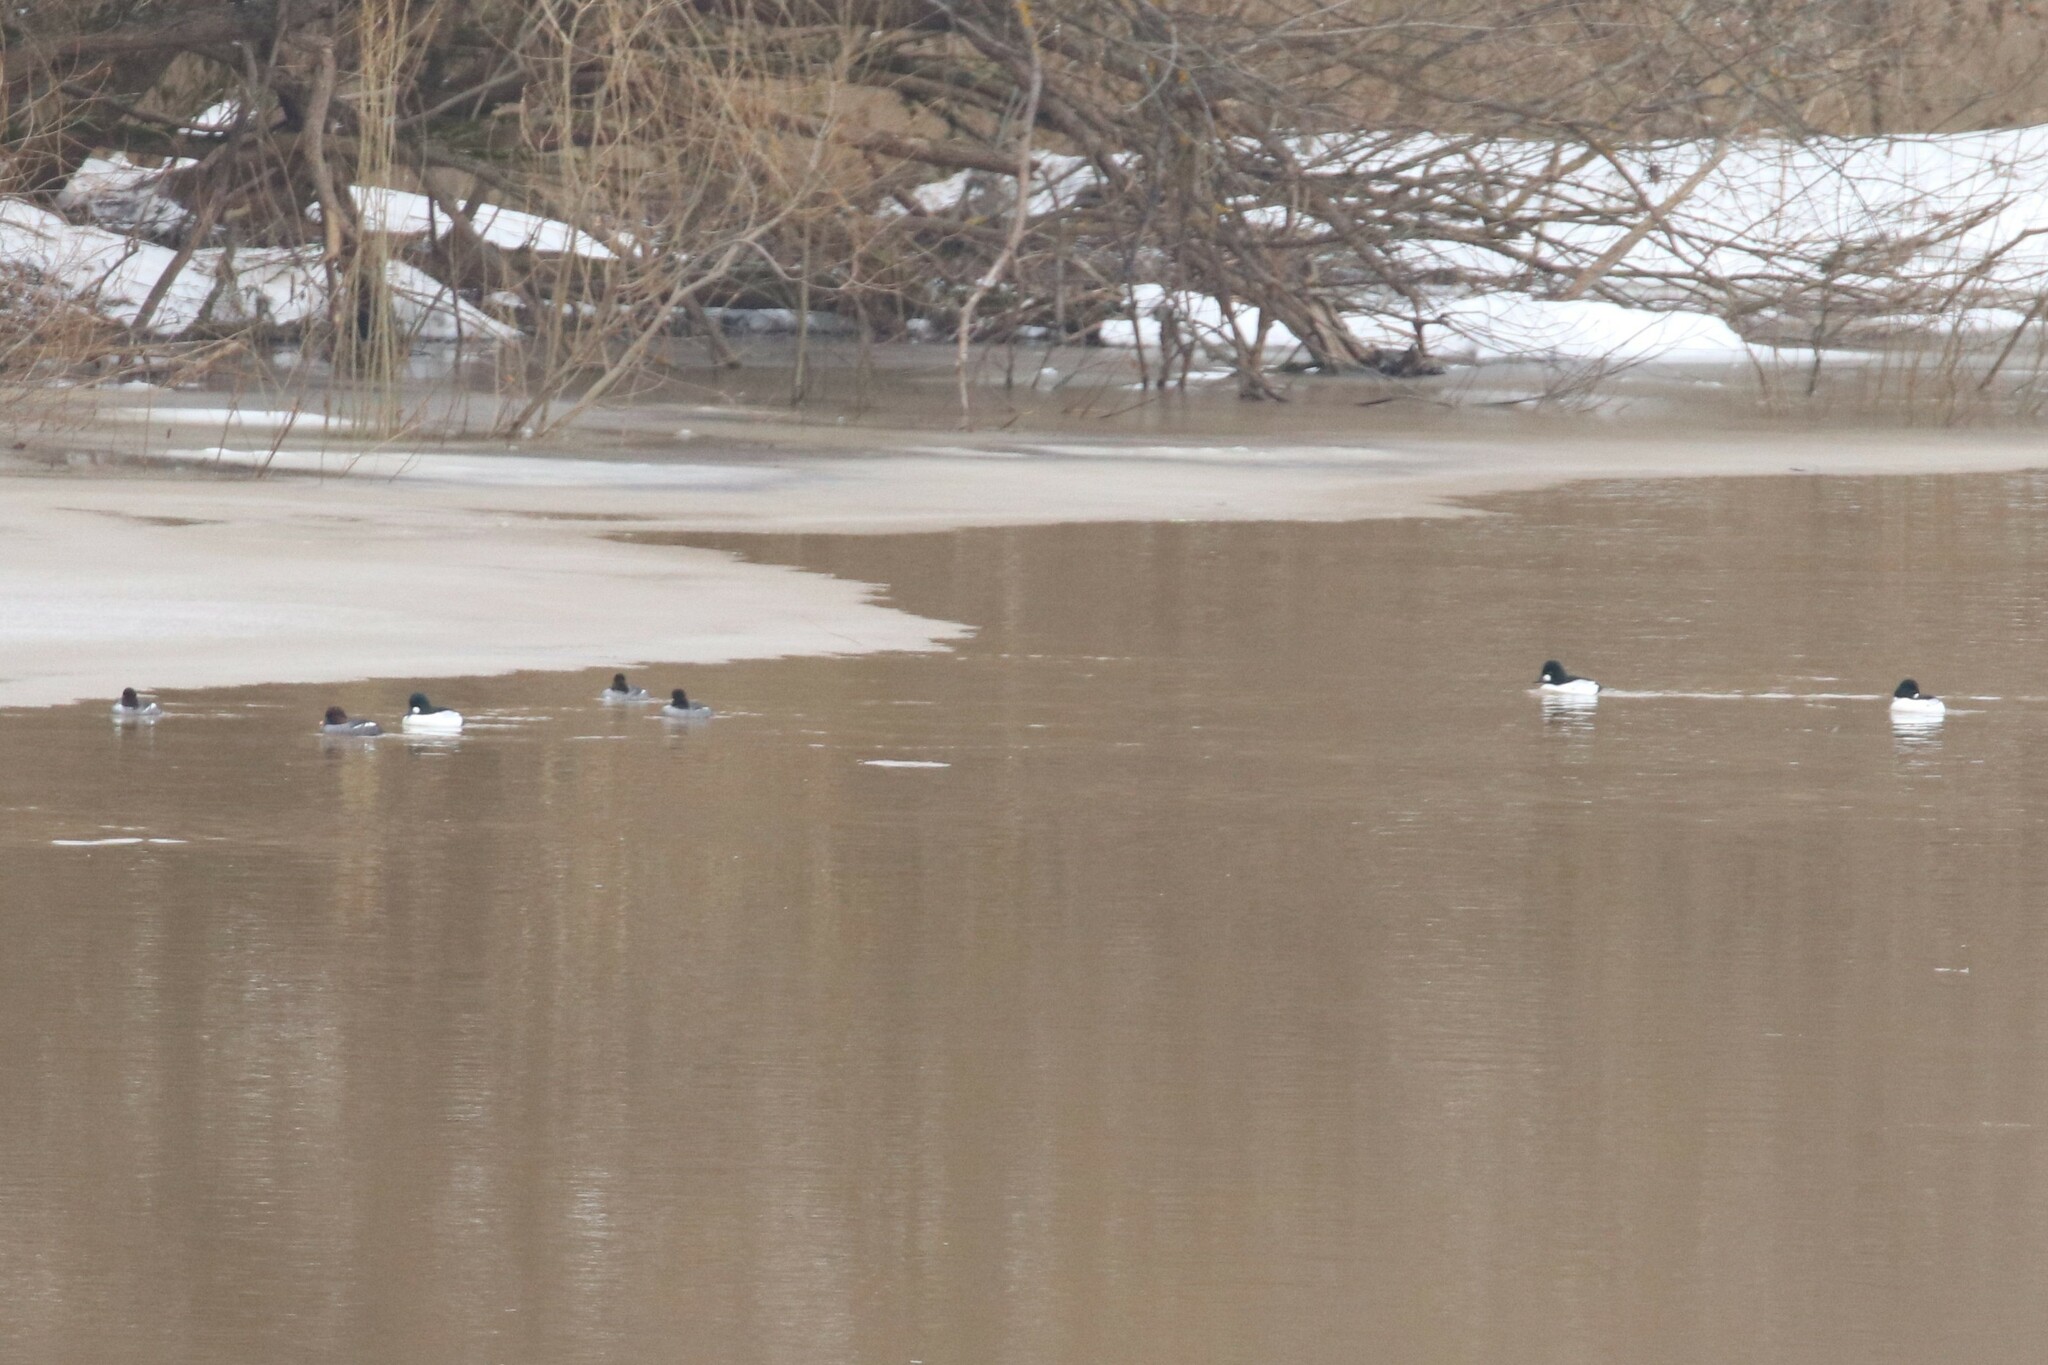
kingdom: Animalia
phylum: Chordata
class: Aves
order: Anseriformes
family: Anatidae
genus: Bucephala
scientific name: Bucephala clangula
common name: Common goldeneye
